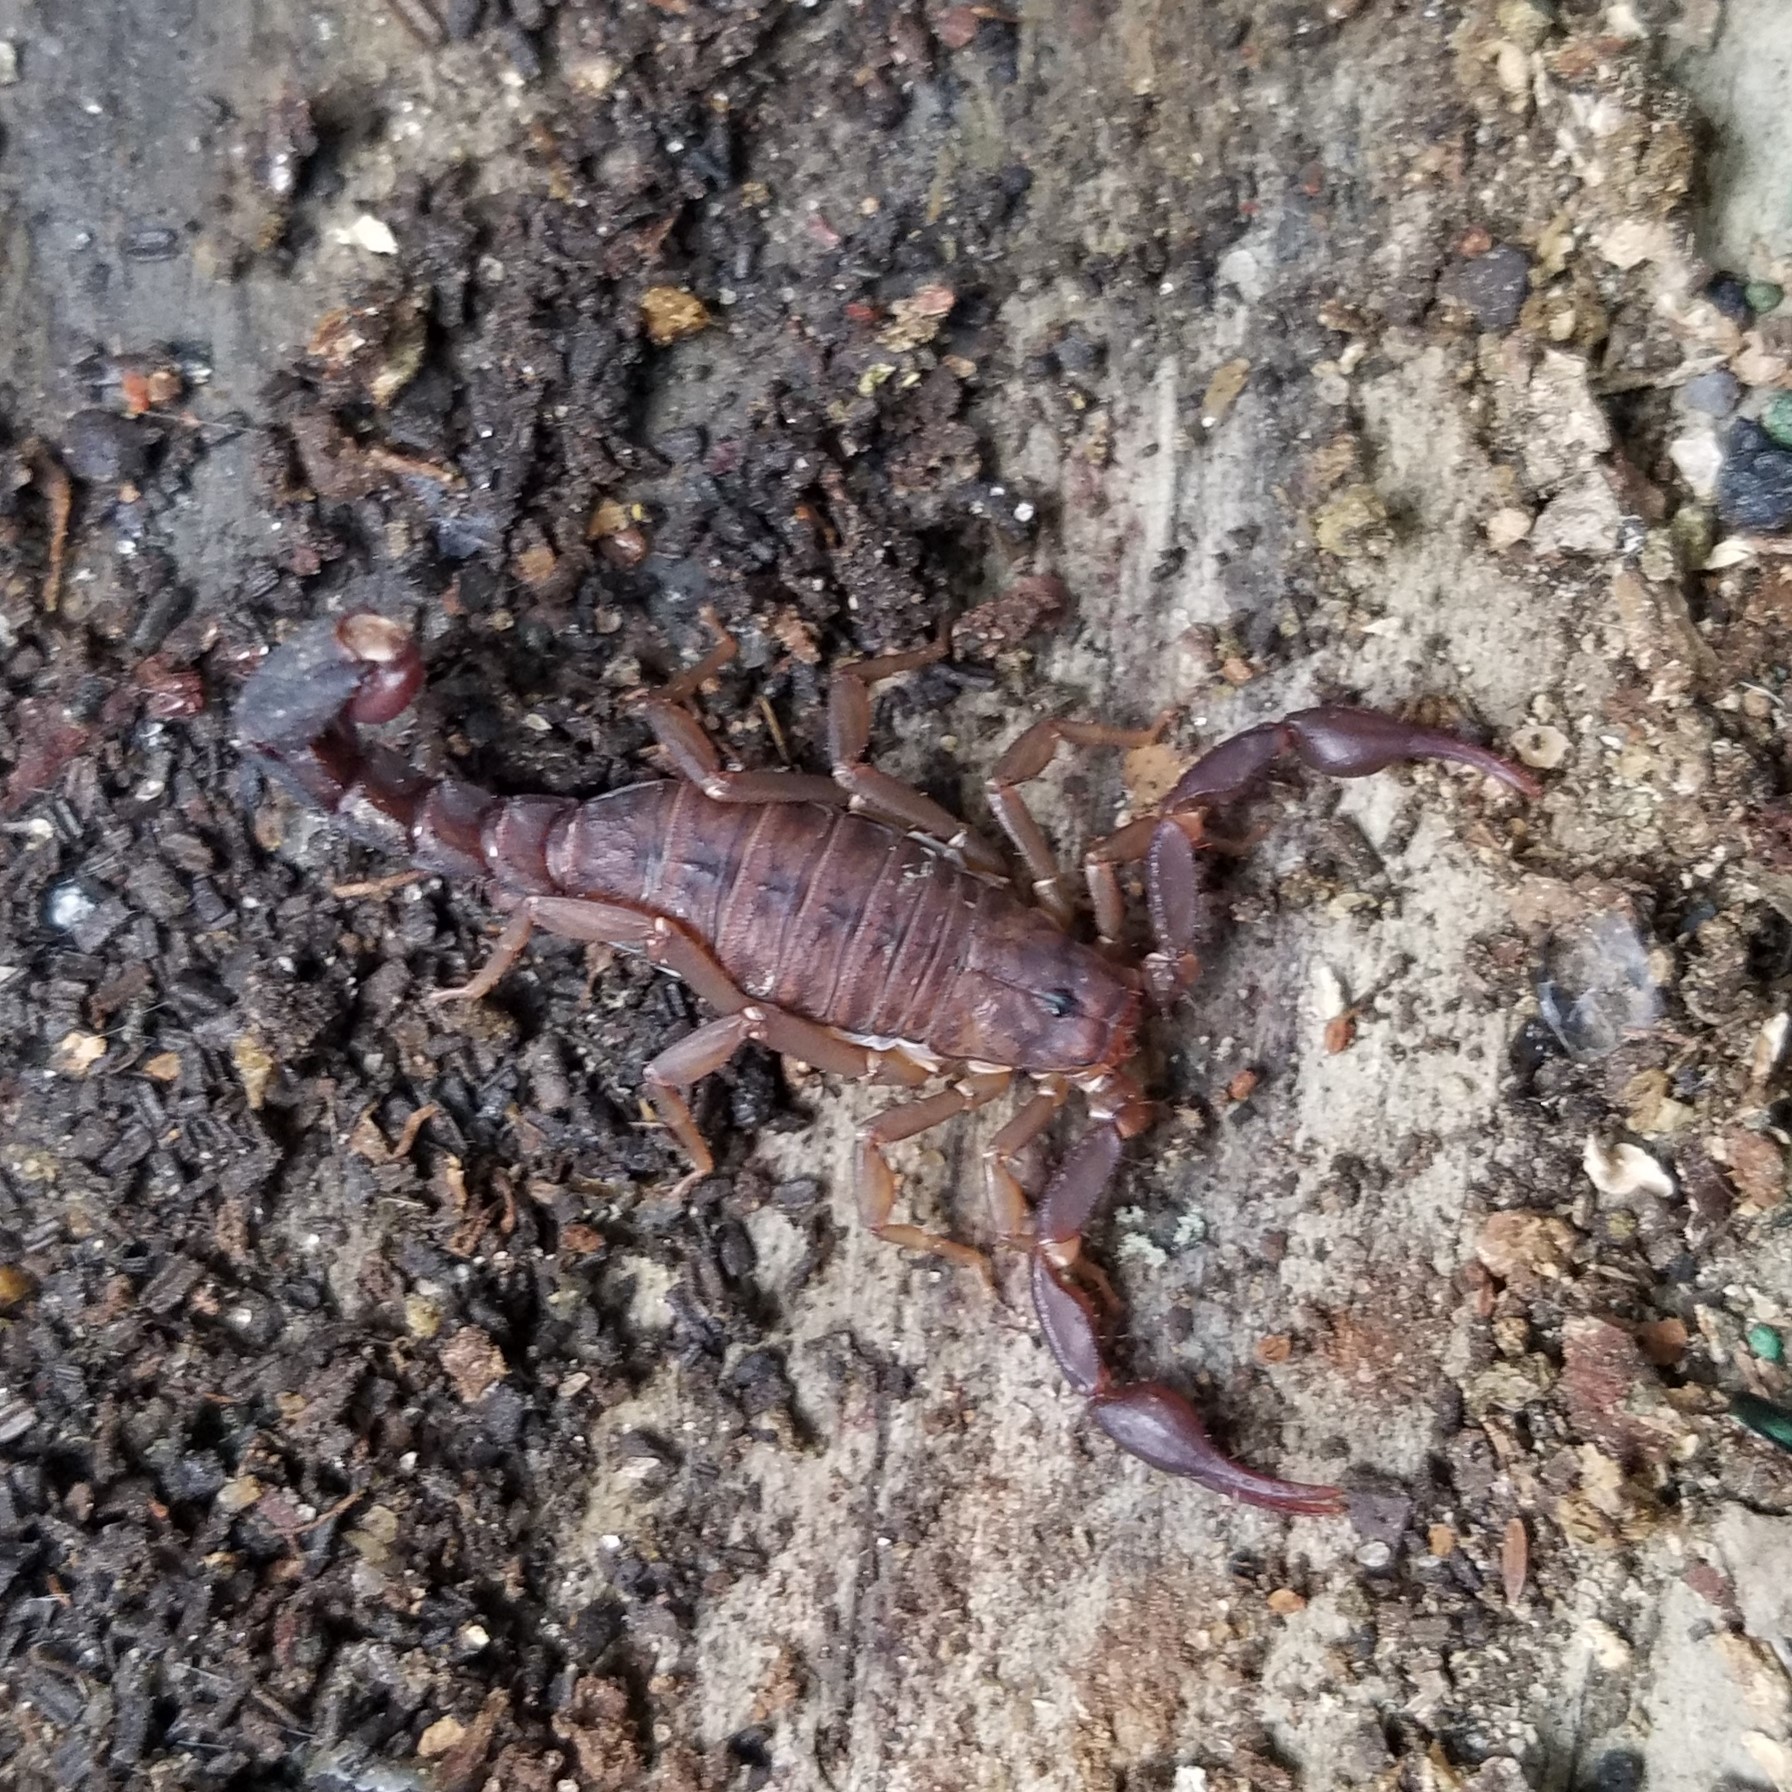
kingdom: Animalia
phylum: Arthropoda
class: Arachnida
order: Scorpiones
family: Vaejovidae
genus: Vaejovis
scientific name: Vaejovis carolinianus
